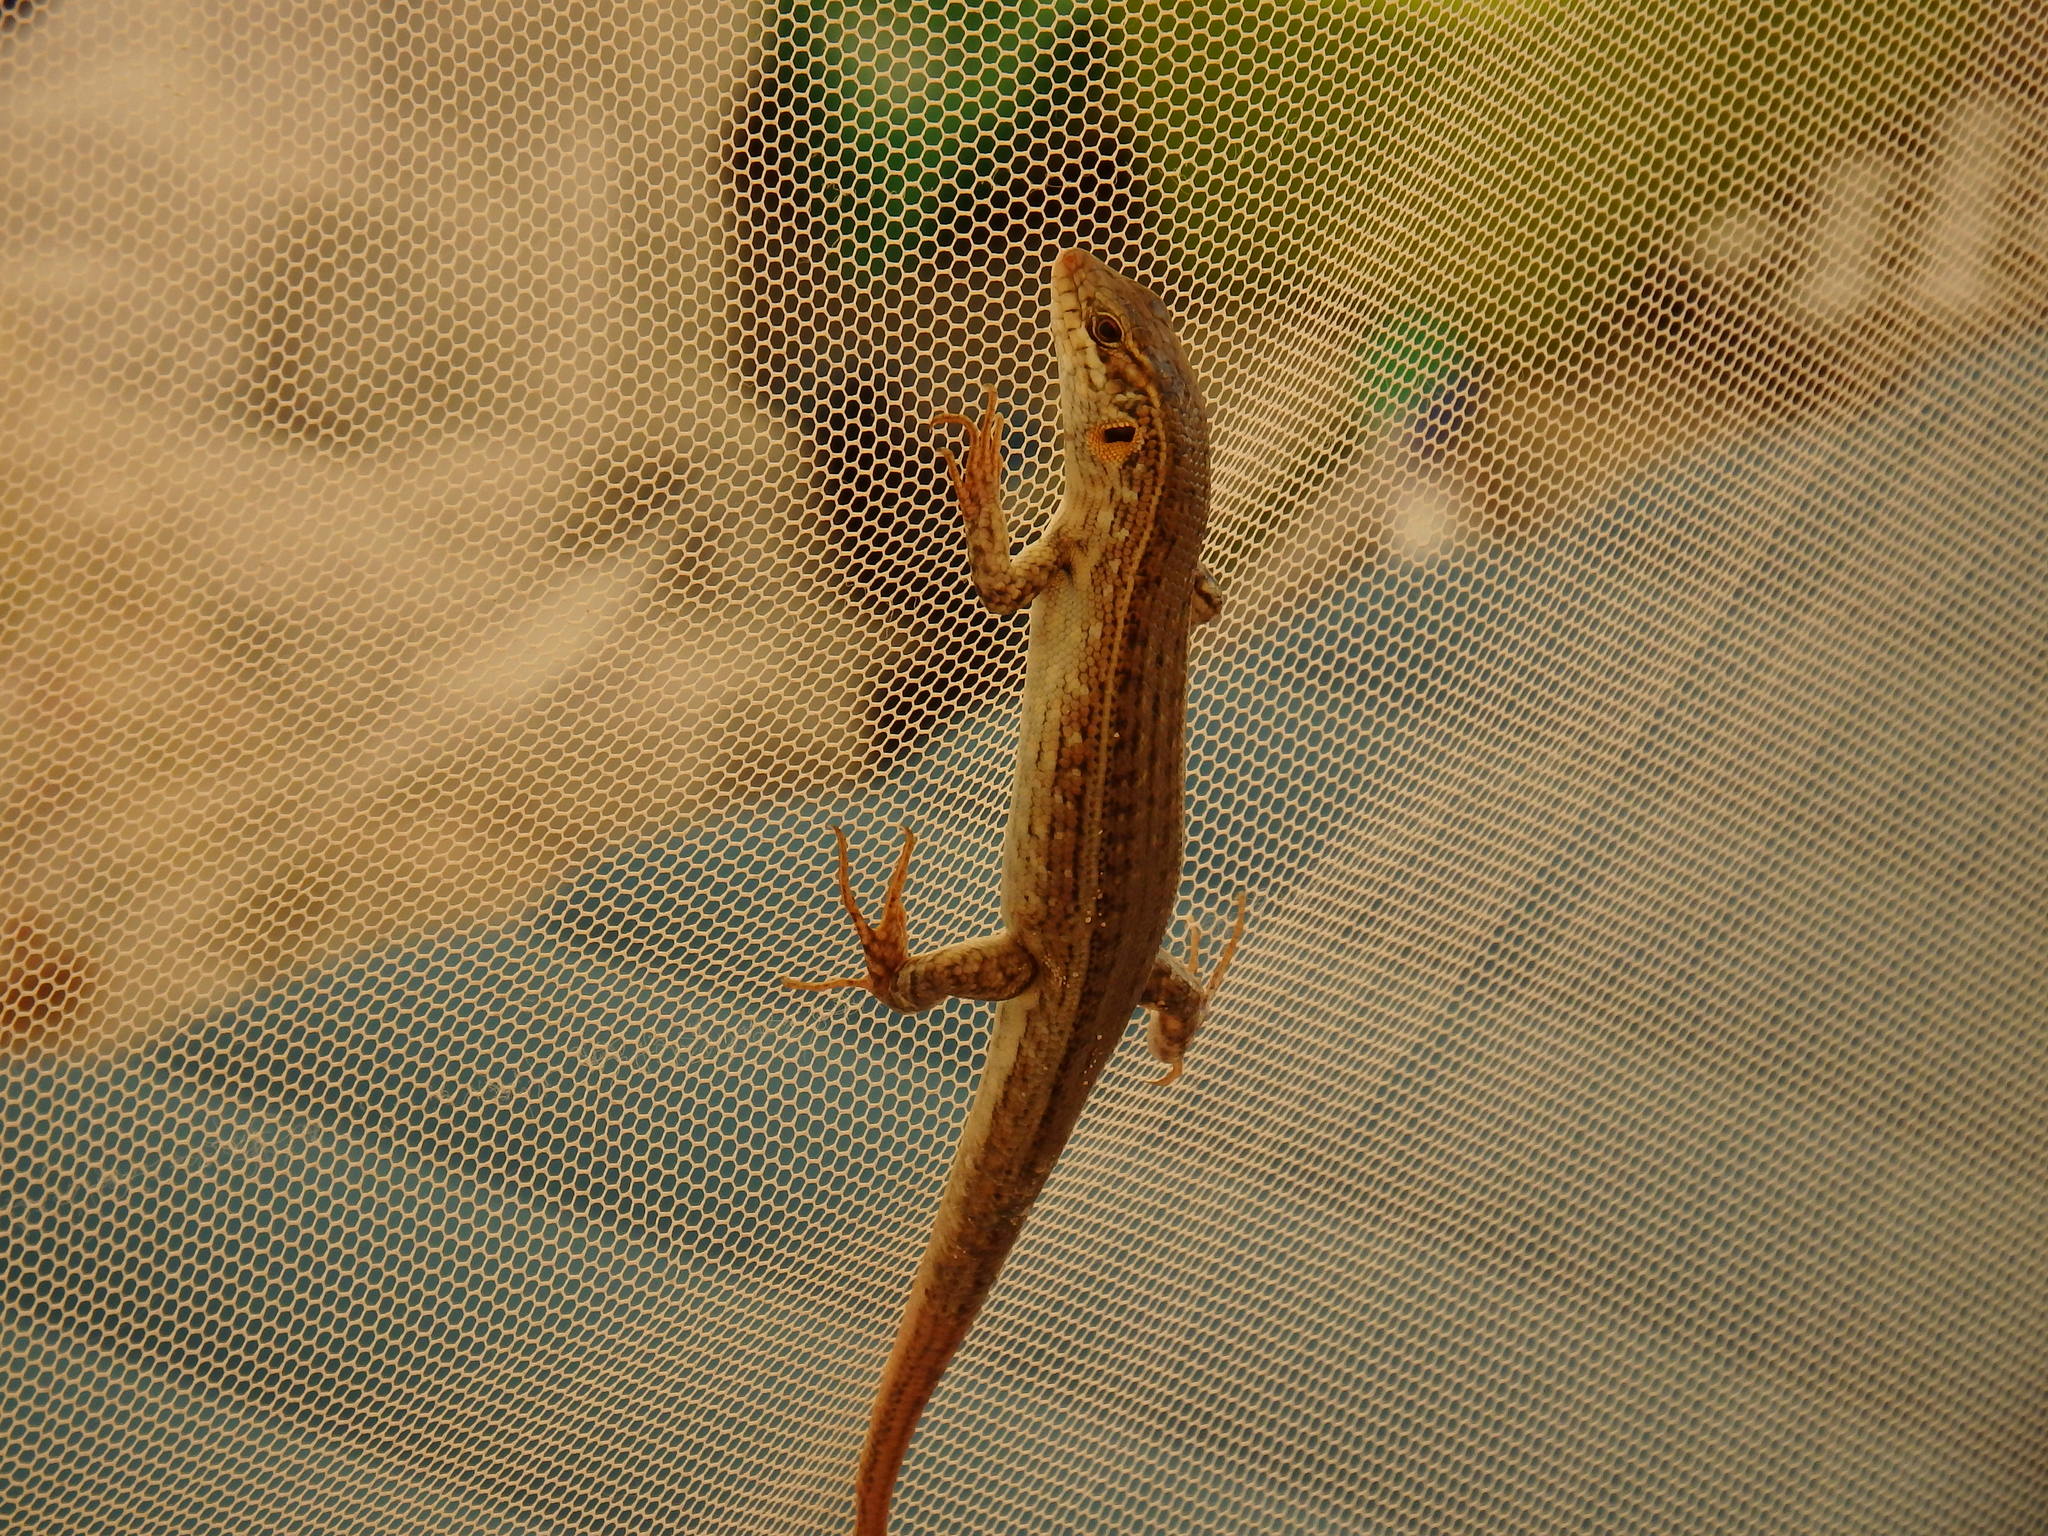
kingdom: Animalia
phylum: Chordata
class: Squamata
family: Scincidae
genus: Chioninia
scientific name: Chioninia spinalis
